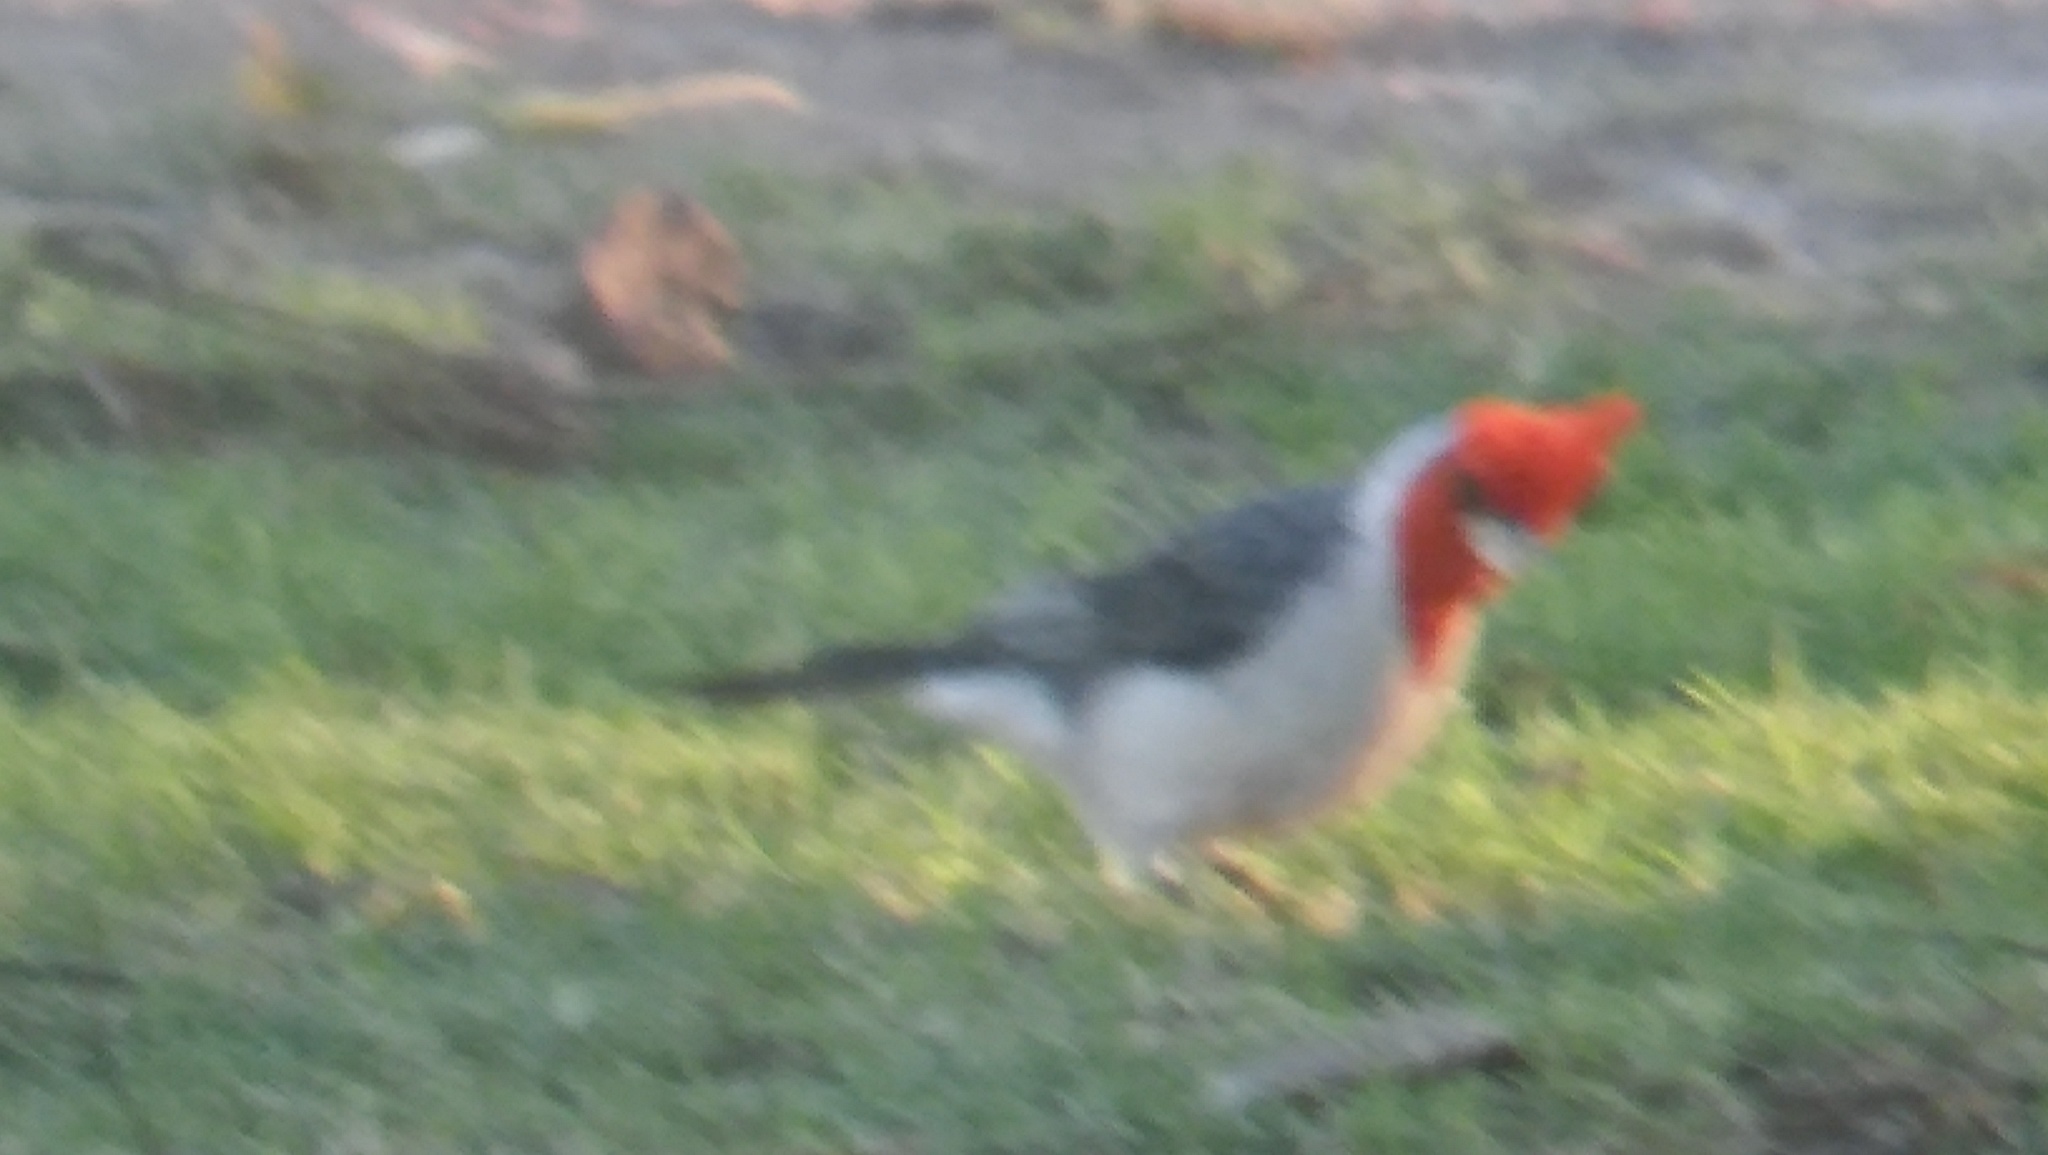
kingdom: Animalia
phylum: Chordata
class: Aves
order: Passeriformes
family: Thraupidae
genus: Paroaria
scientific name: Paroaria coronata
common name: Red-crested cardinal
